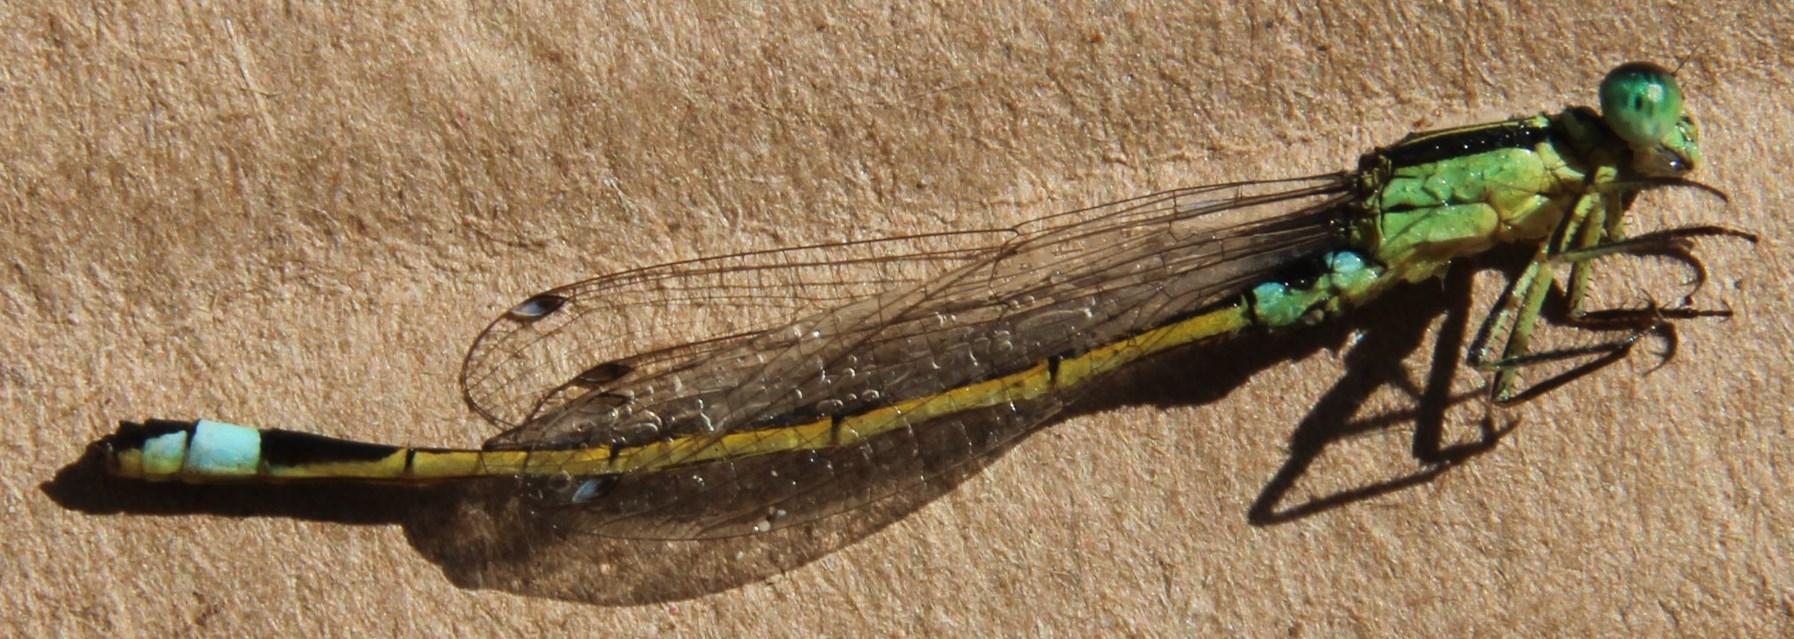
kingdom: Animalia
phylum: Arthropoda
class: Insecta
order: Odonata
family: Coenagrionidae
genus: Ischnura
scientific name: Ischnura senegalensis
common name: Tropical bluetail
